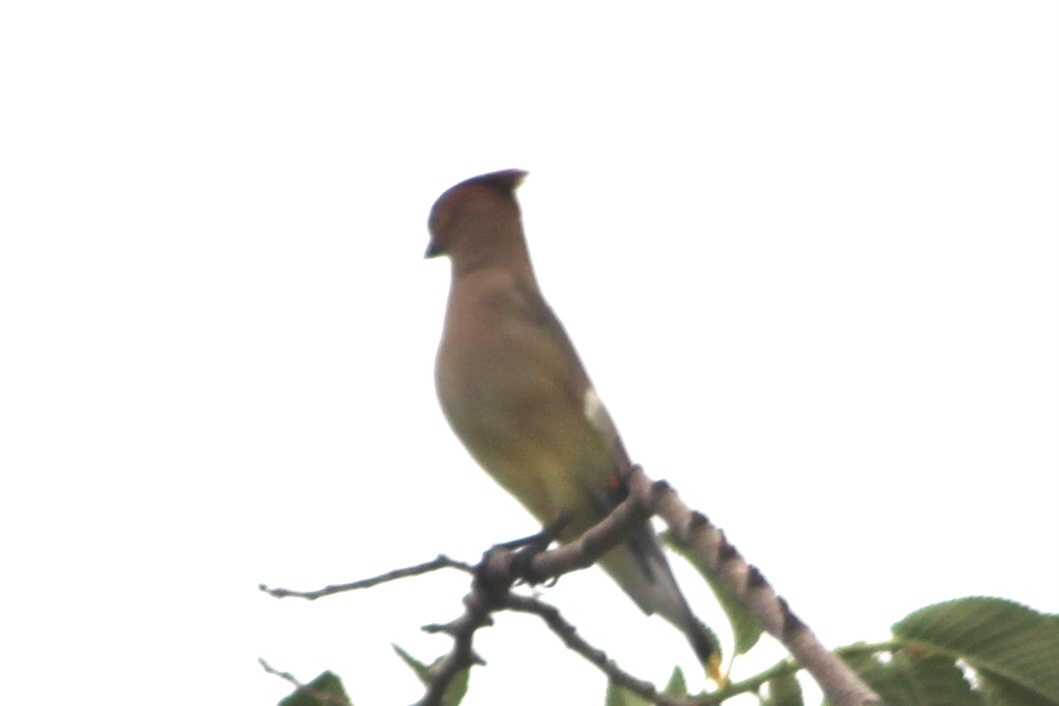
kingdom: Animalia
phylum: Chordata
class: Aves
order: Passeriformes
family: Bombycillidae
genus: Bombycilla
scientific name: Bombycilla cedrorum
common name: Cedar waxwing
